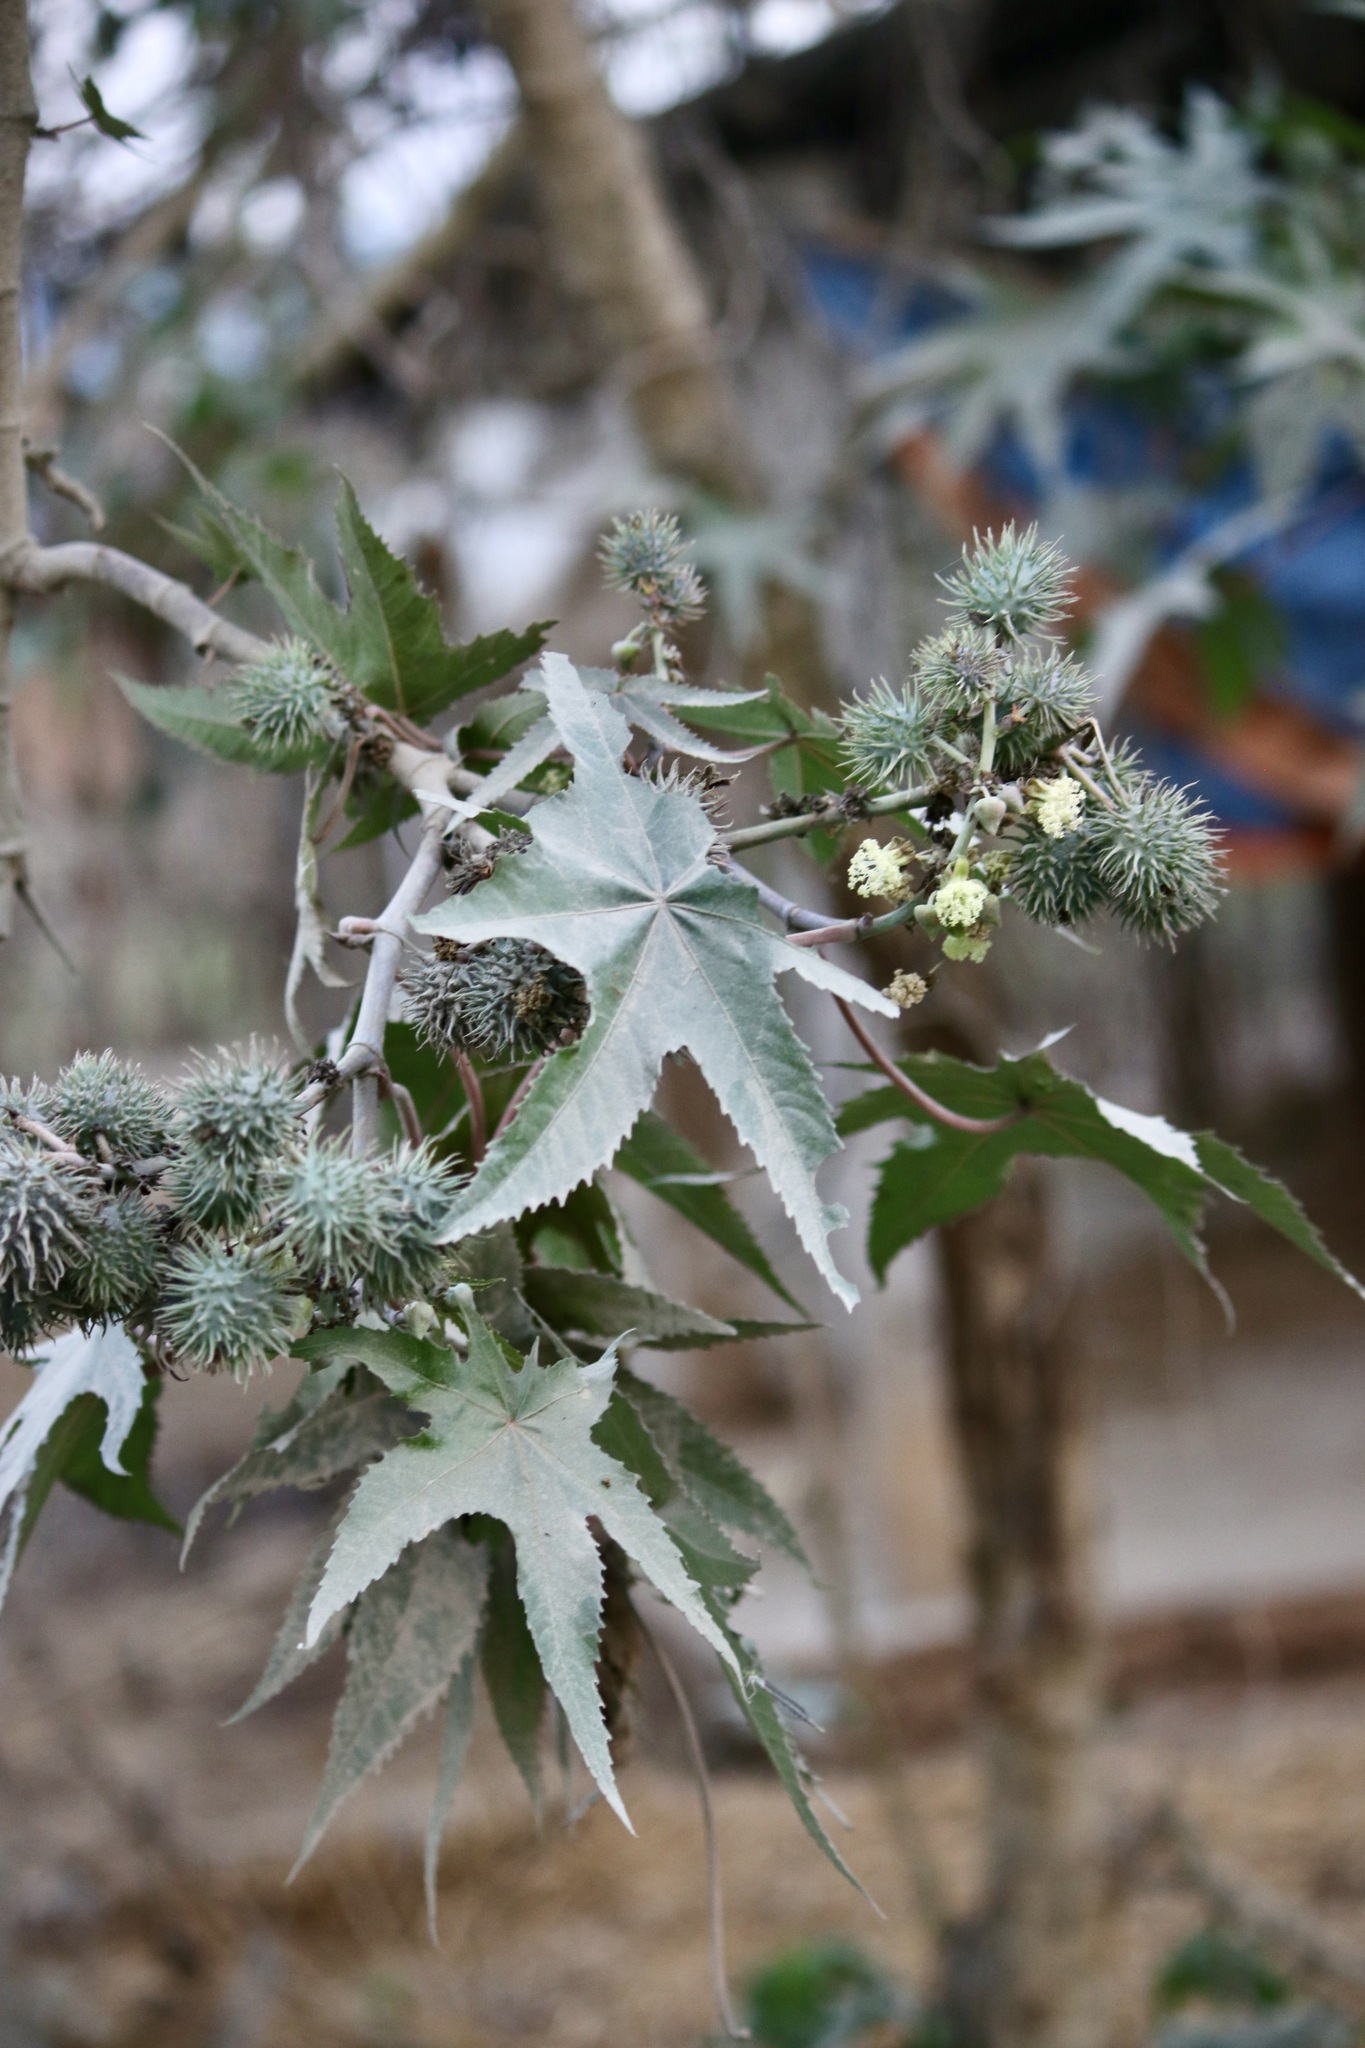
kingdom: Plantae
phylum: Tracheophyta
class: Magnoliopsida
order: Malpighiales
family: Euphorbiaceae
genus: Ricinus
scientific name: Ricinus communis
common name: Castor-oil-plant
